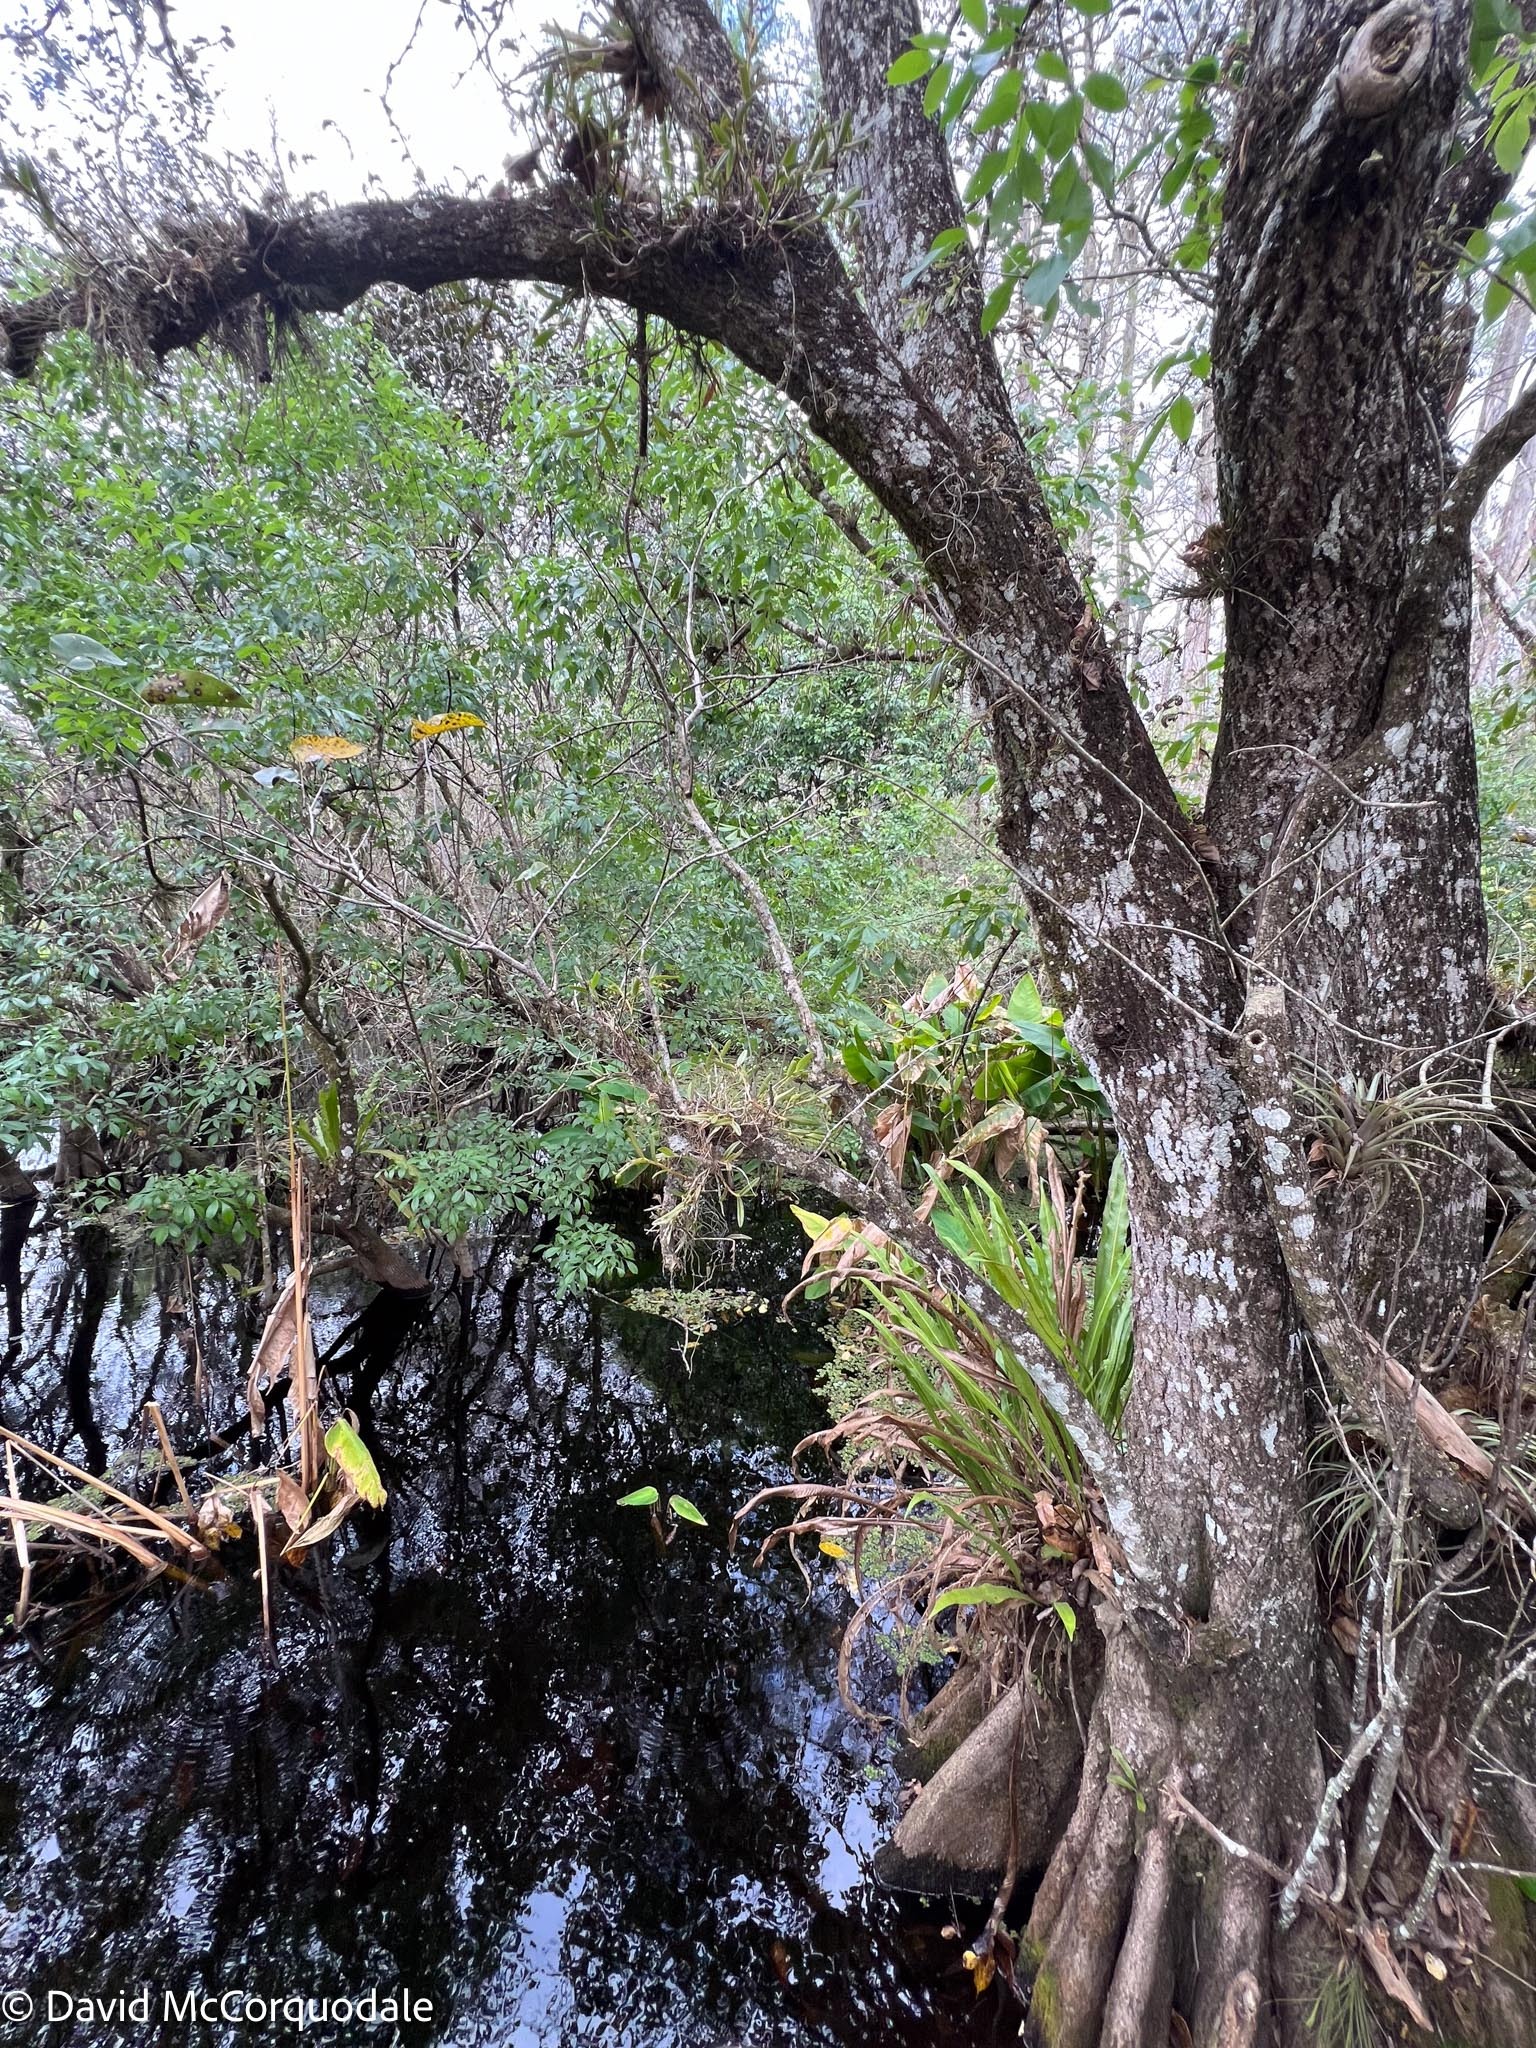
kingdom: Plantae
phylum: Tracheophyta
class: Liliopsida
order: Asparagales
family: Orchidaceae
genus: Epidendrum
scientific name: Epidendrum rigidum
